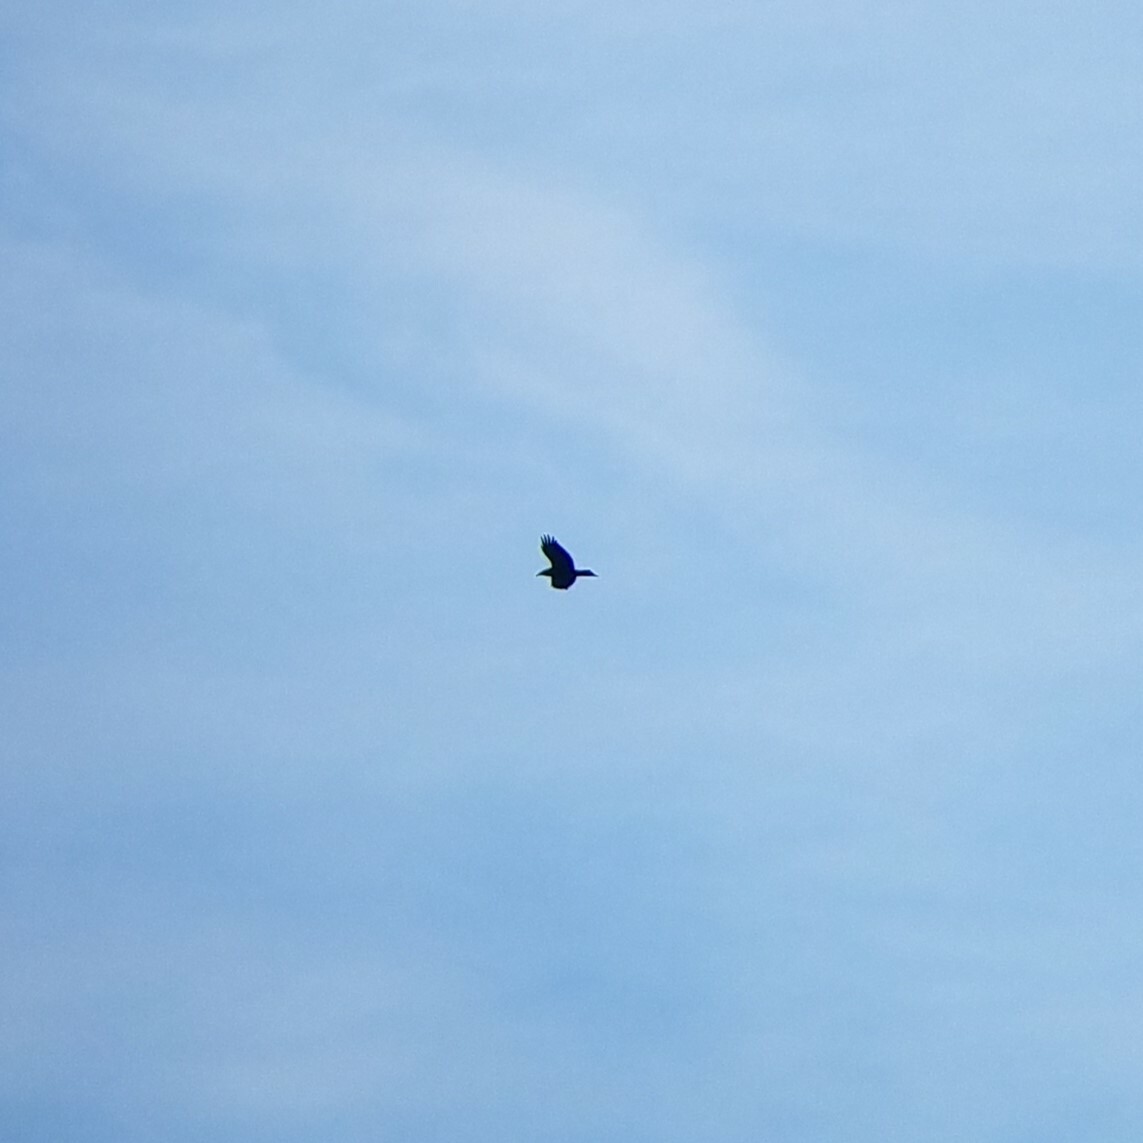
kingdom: Animalia
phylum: Chordata
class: Aves
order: Passeriformes
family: Corvidae
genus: Corvus
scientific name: Corvus corax
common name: Common raven
